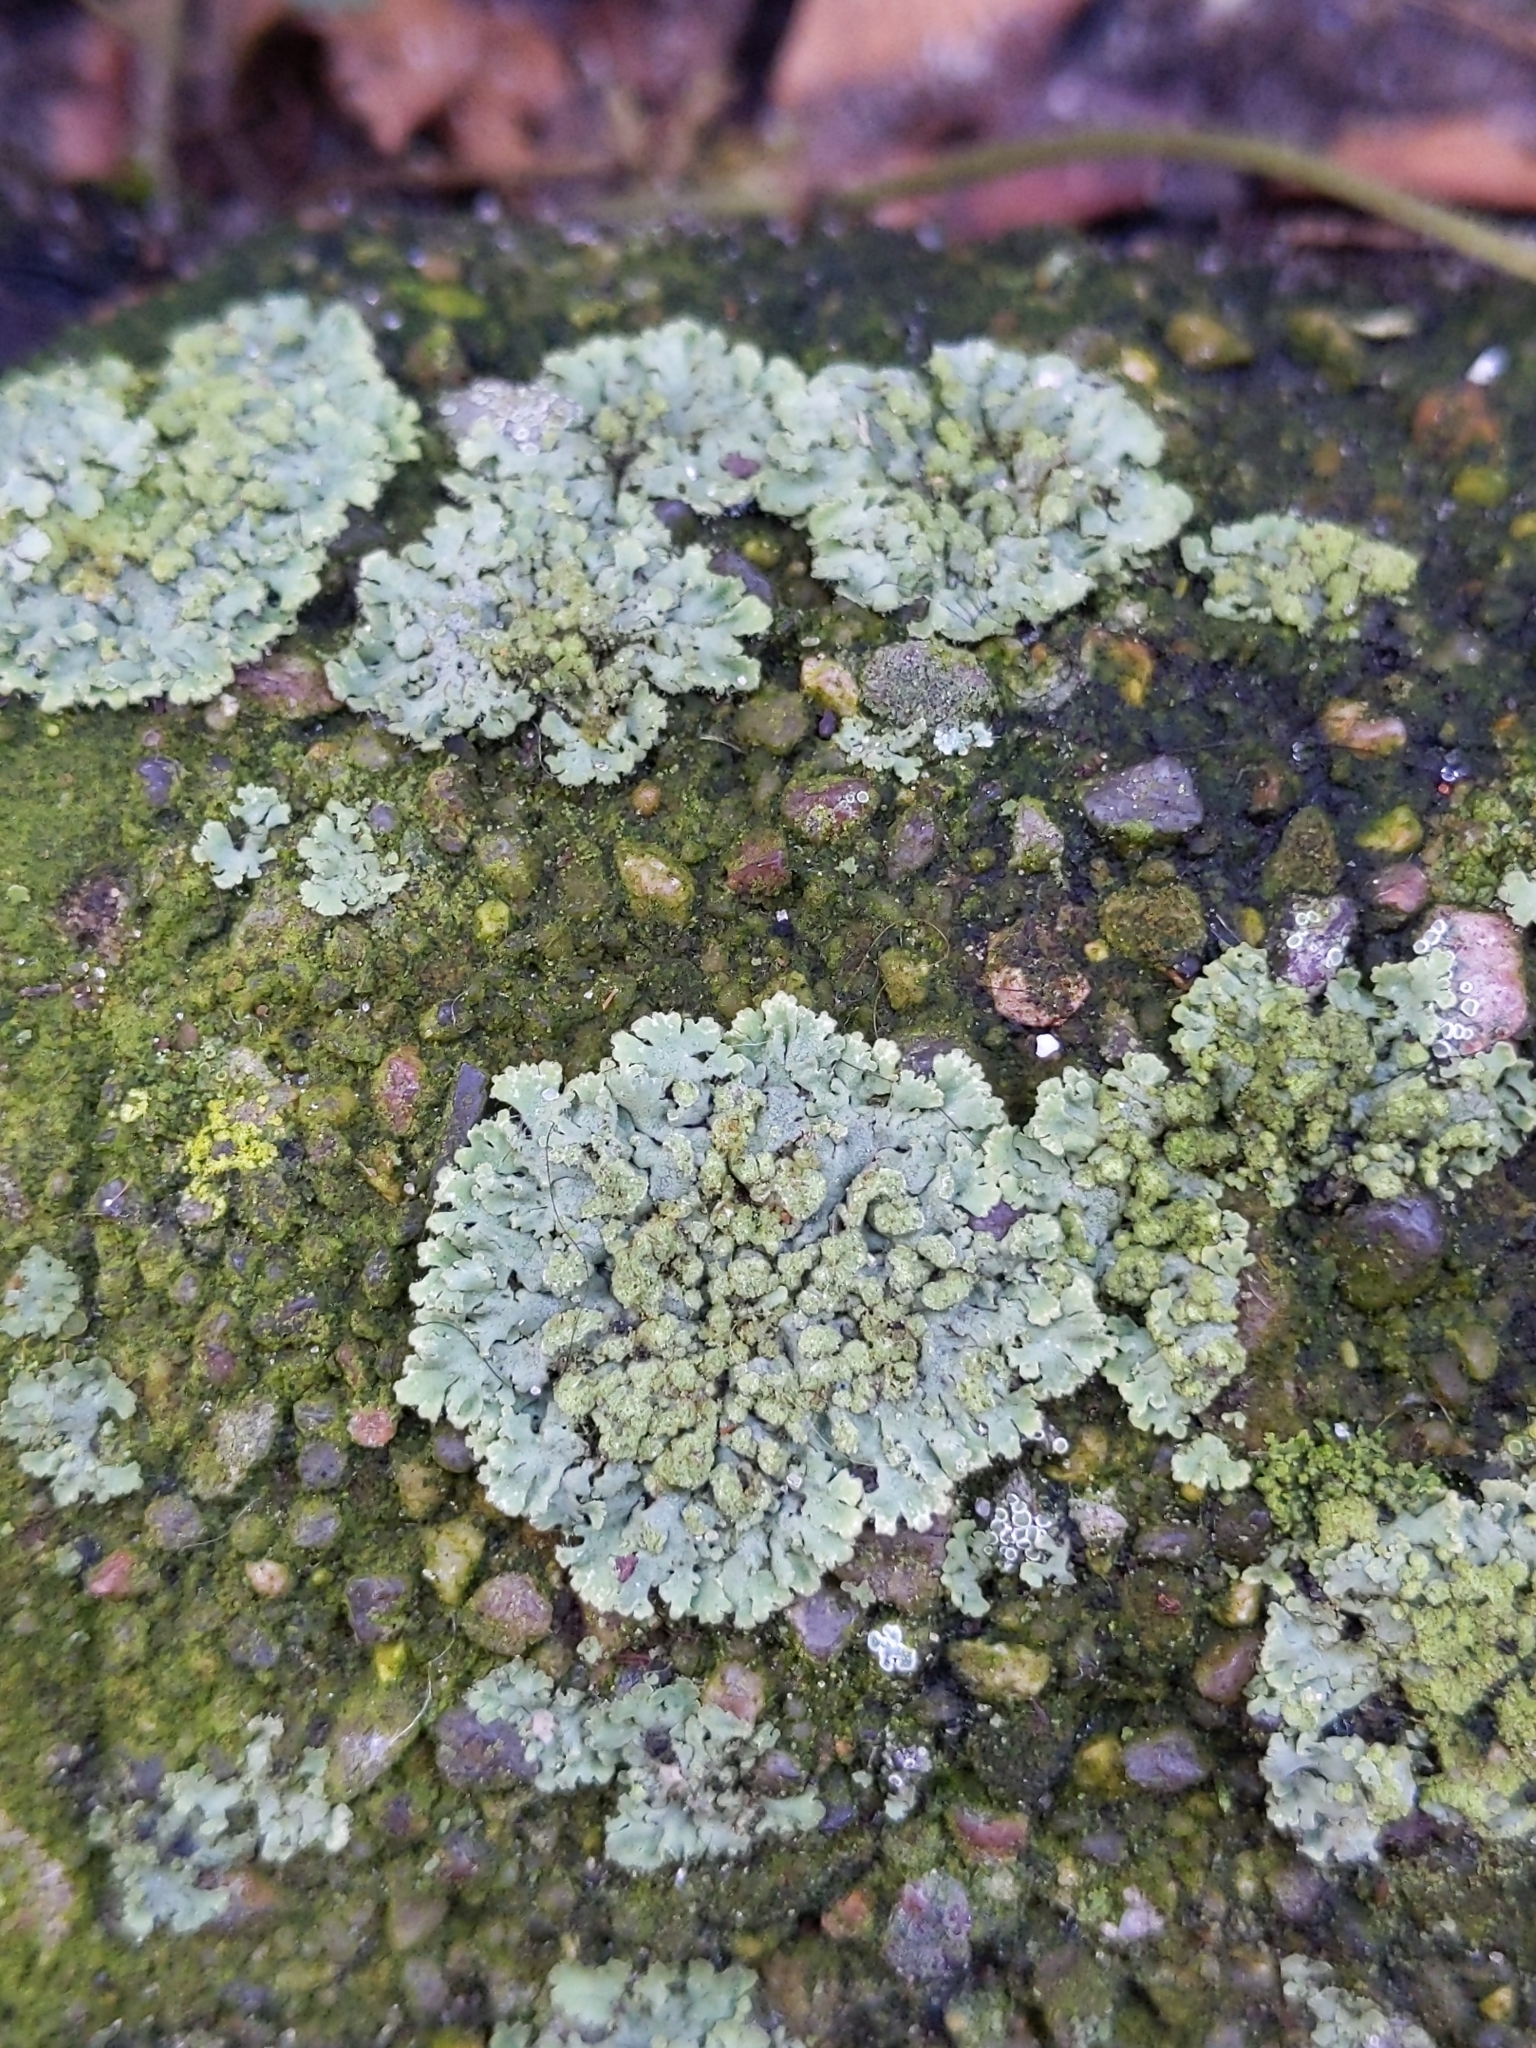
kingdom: Fungi
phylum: Ascomycota
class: Lecanoromycetes
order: Caliciales
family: Physciaceae
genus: Phaeophyscia
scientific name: Phaeophyscia orbicularis
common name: Mealy shadow lichen
